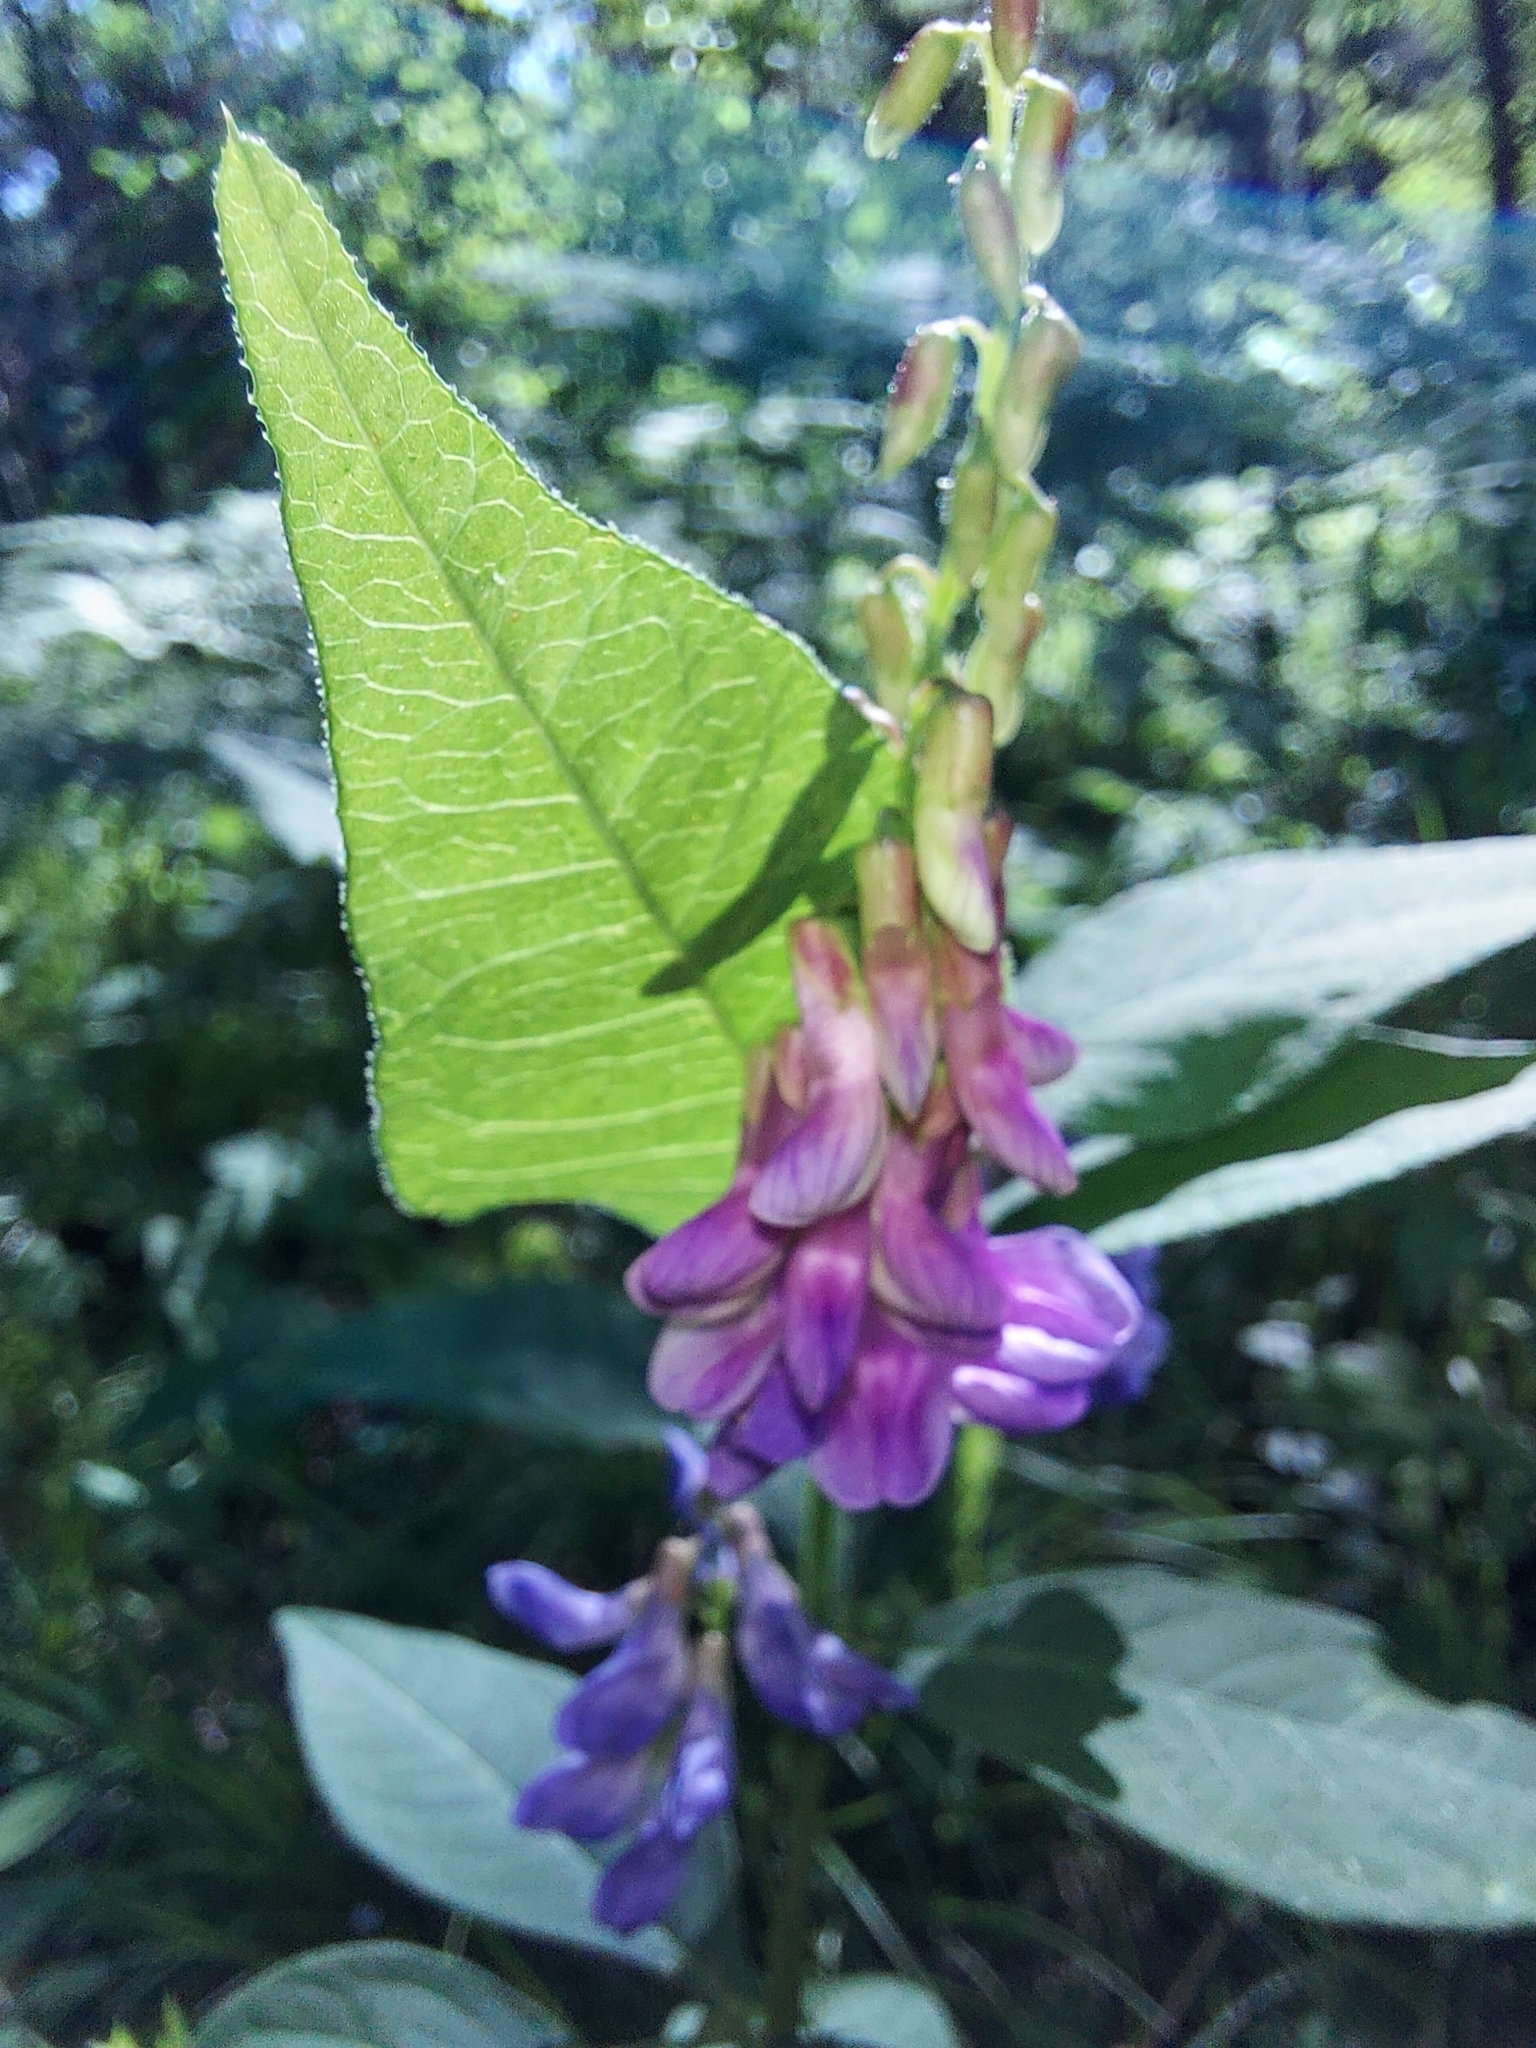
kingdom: Plantae
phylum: Tracheophyta
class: Magnoliopsida
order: Fabales
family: Fabaceae
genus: Vicia
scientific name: Vicia unijuga
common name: Two-leaf vetch
